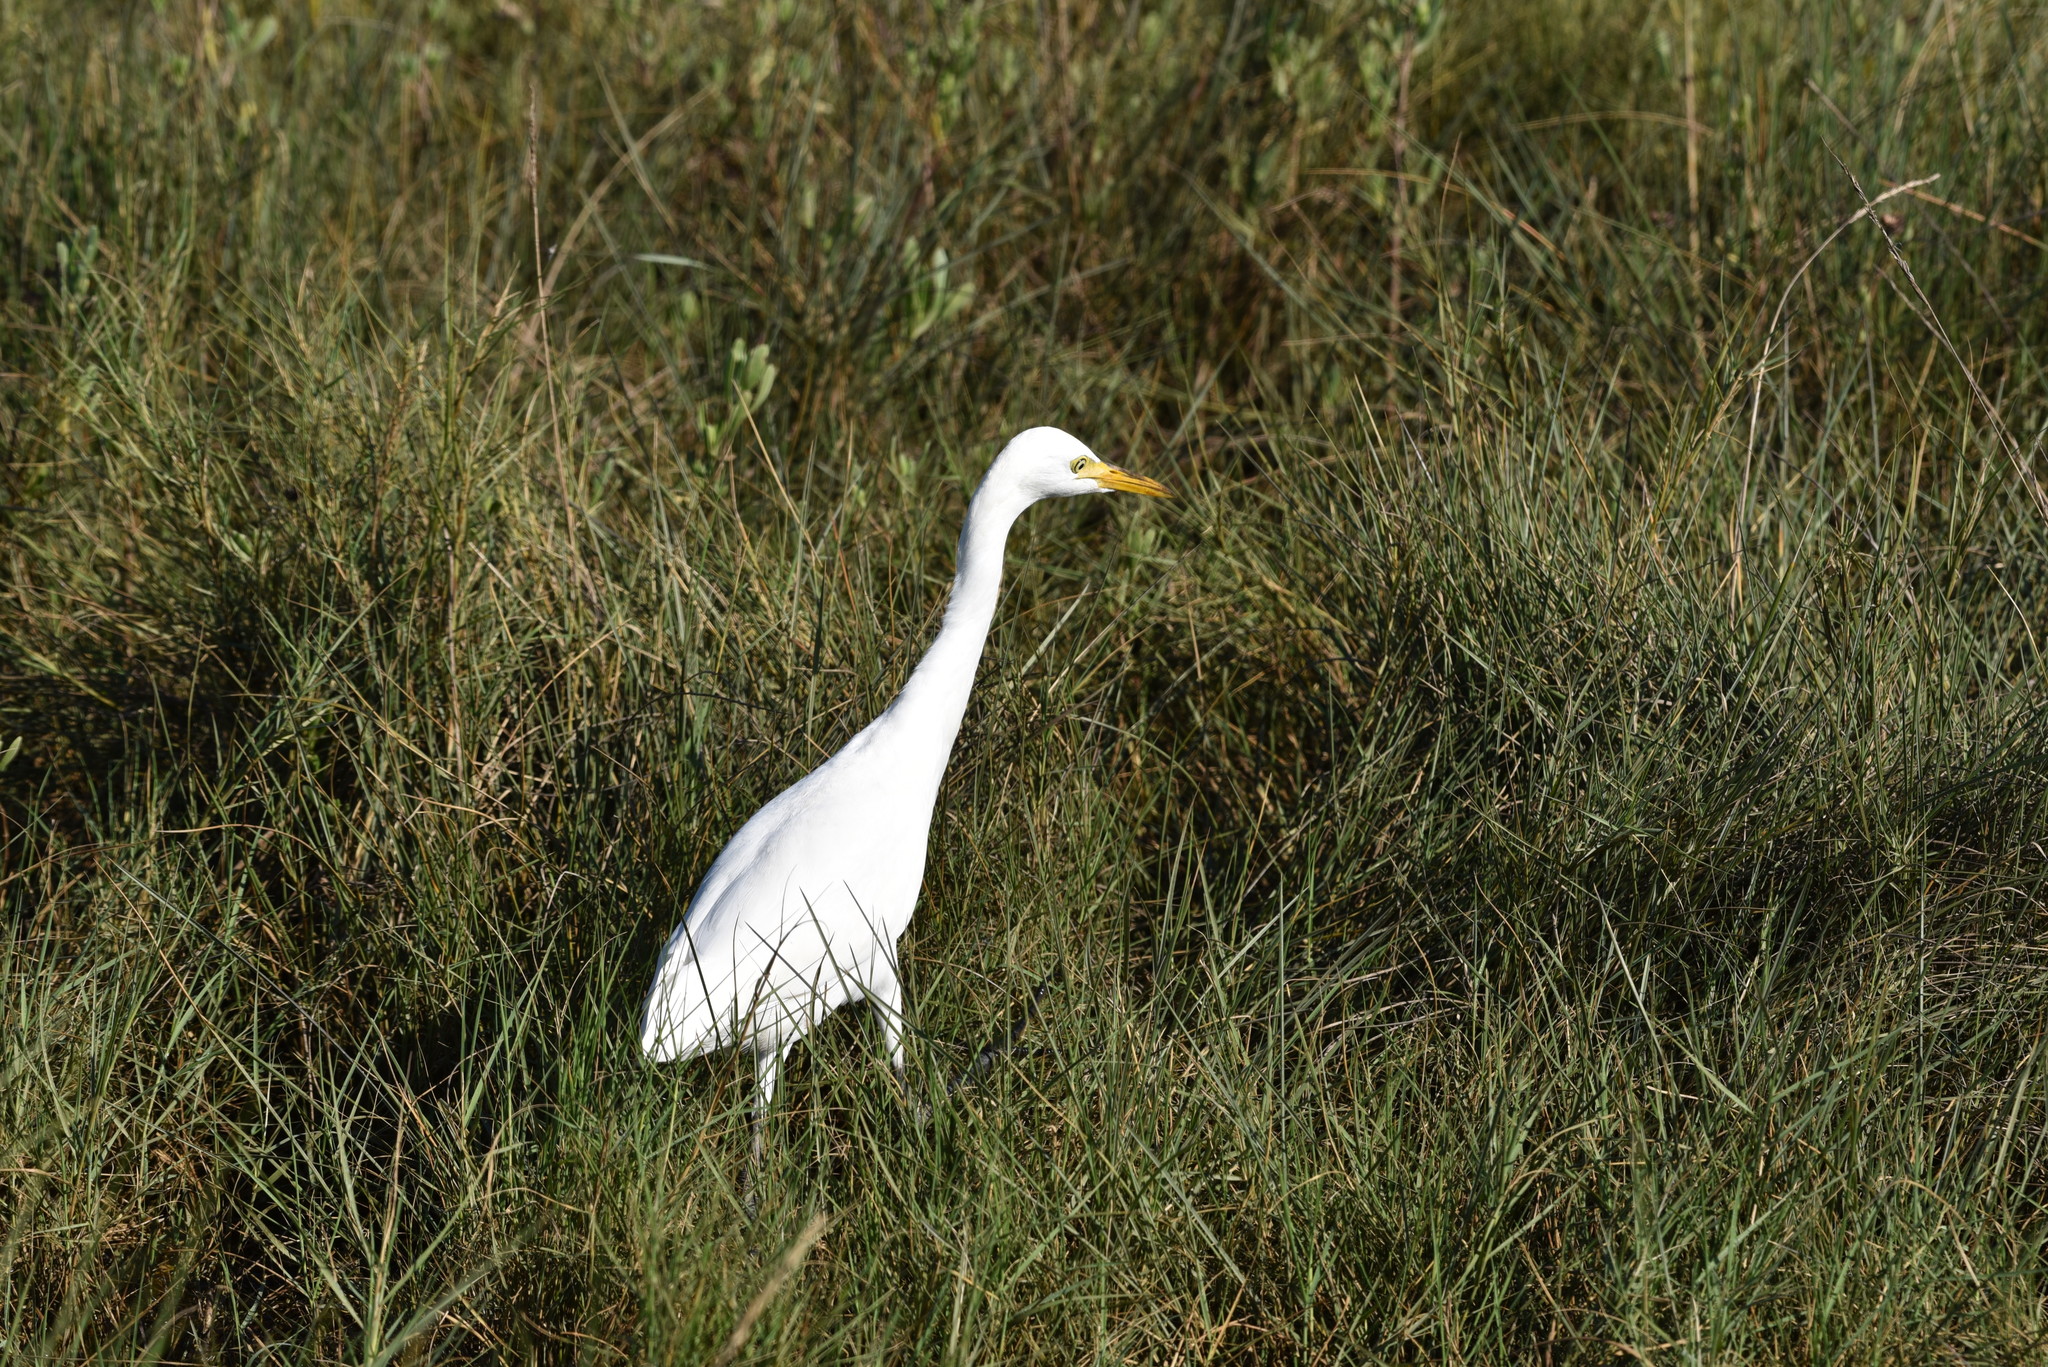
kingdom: Animalia
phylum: Chordata
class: Aves
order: Pelecaniformes
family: Ardeidae
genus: Bubulcus
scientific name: Bubulcus ibis
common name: Cattle egret
